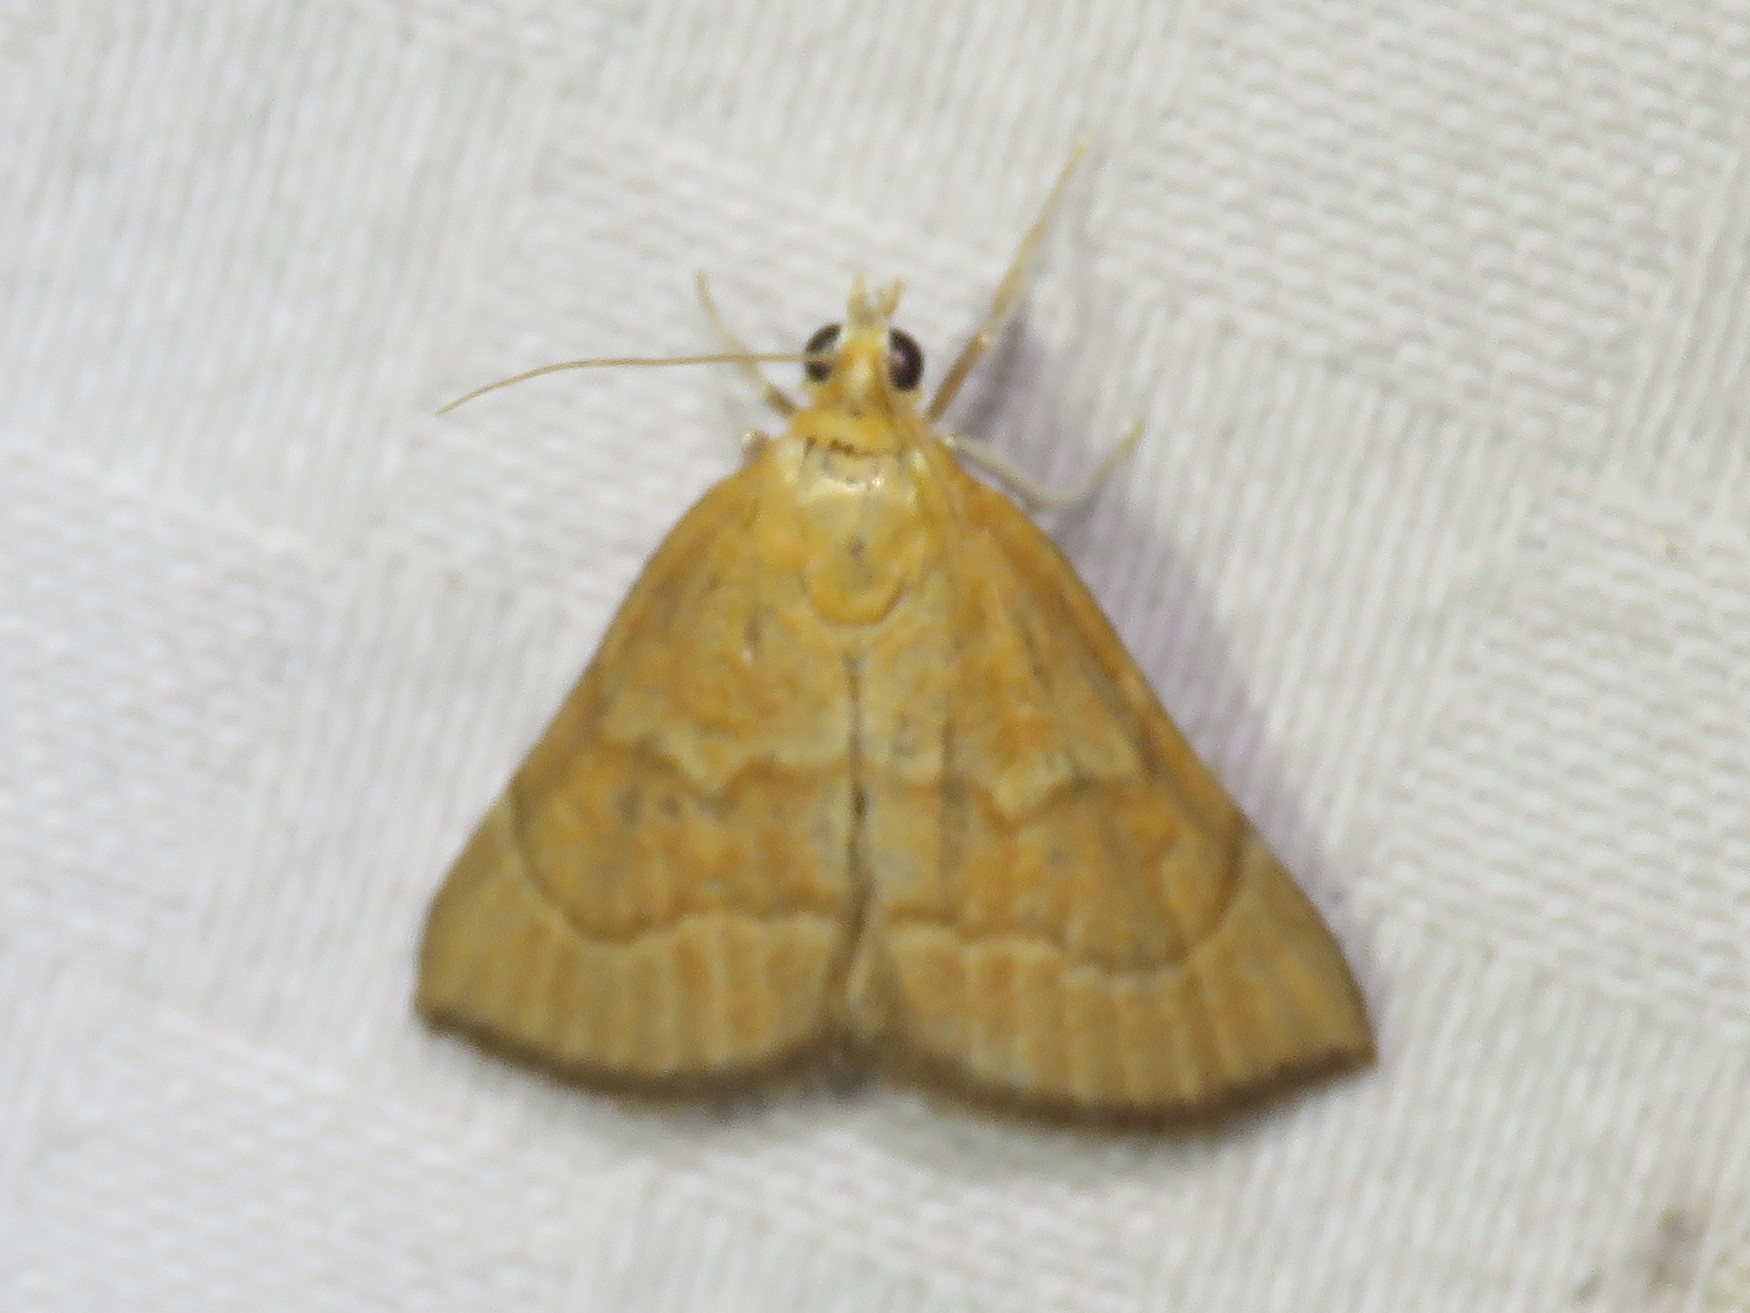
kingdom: Animalia
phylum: Arthropoda
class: Insecta
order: Lepidoptera
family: Crambidae
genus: Glaphyria
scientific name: Glaphyria invisalis
